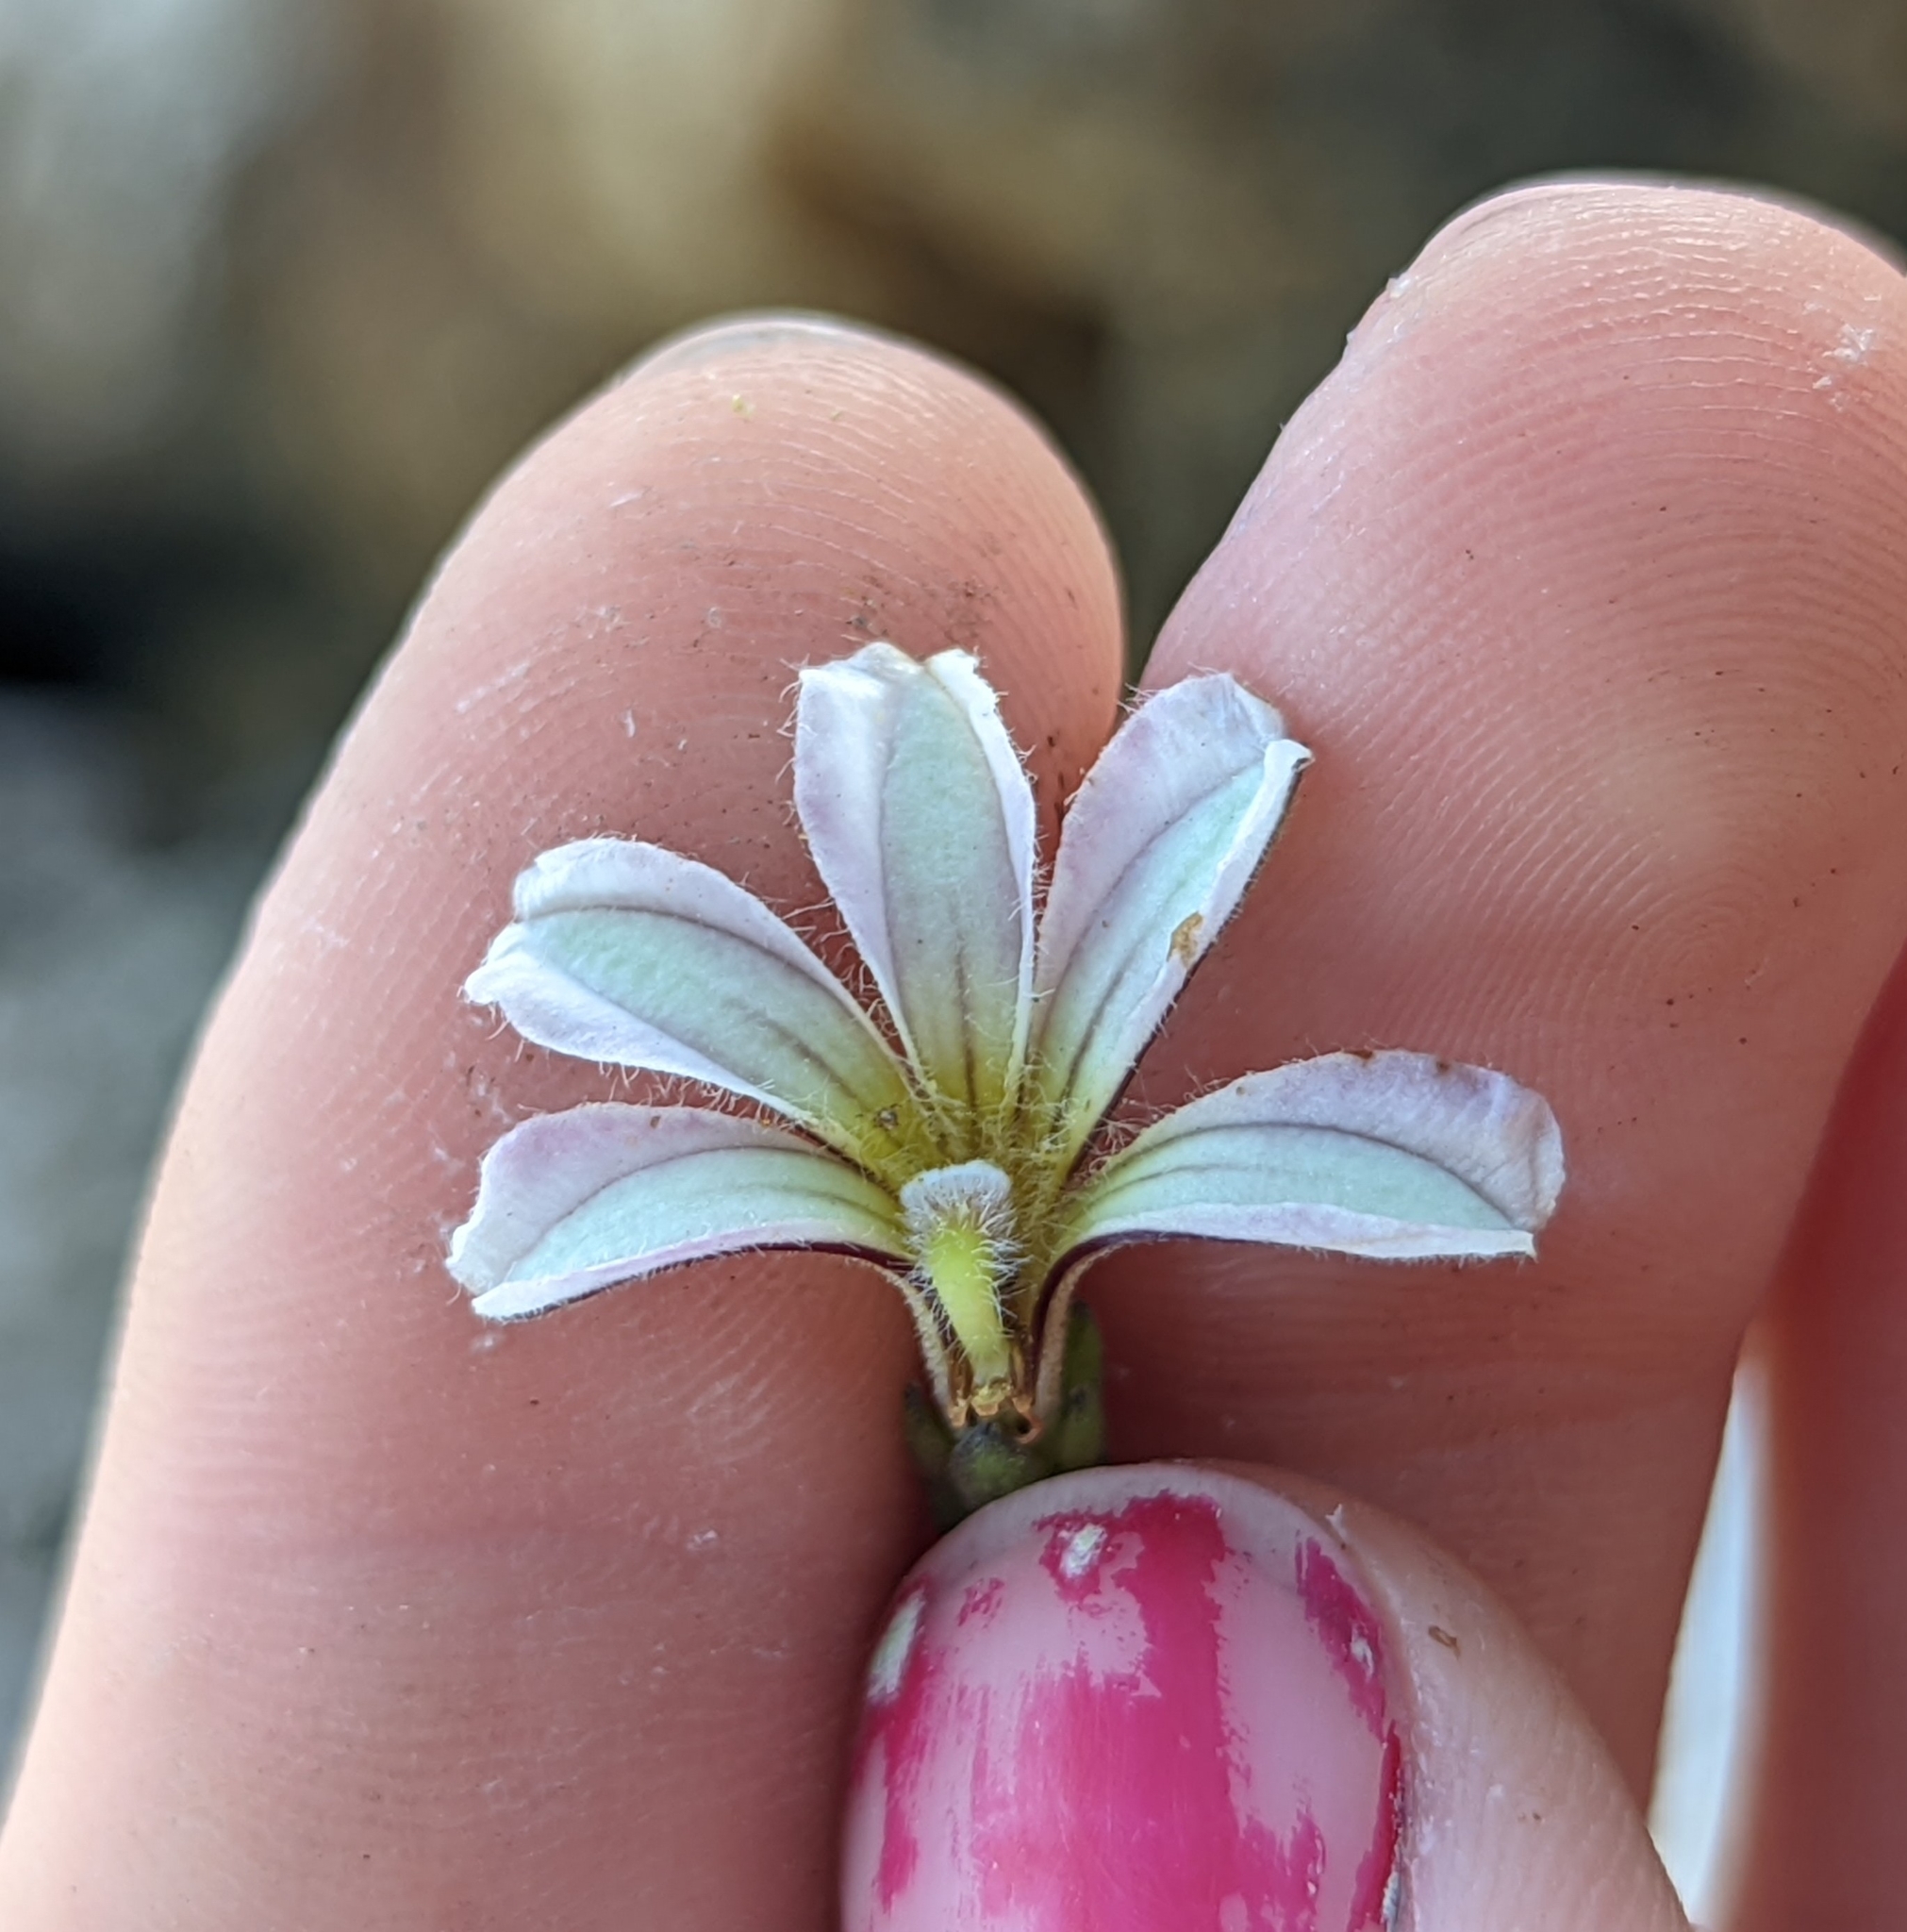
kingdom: Plantae
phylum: Tracheophyta
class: Magnoliopsida
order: Asterales
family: Goodeniaceae
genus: Scaevola
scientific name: Scaevola taccada
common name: Sea lettucetree
